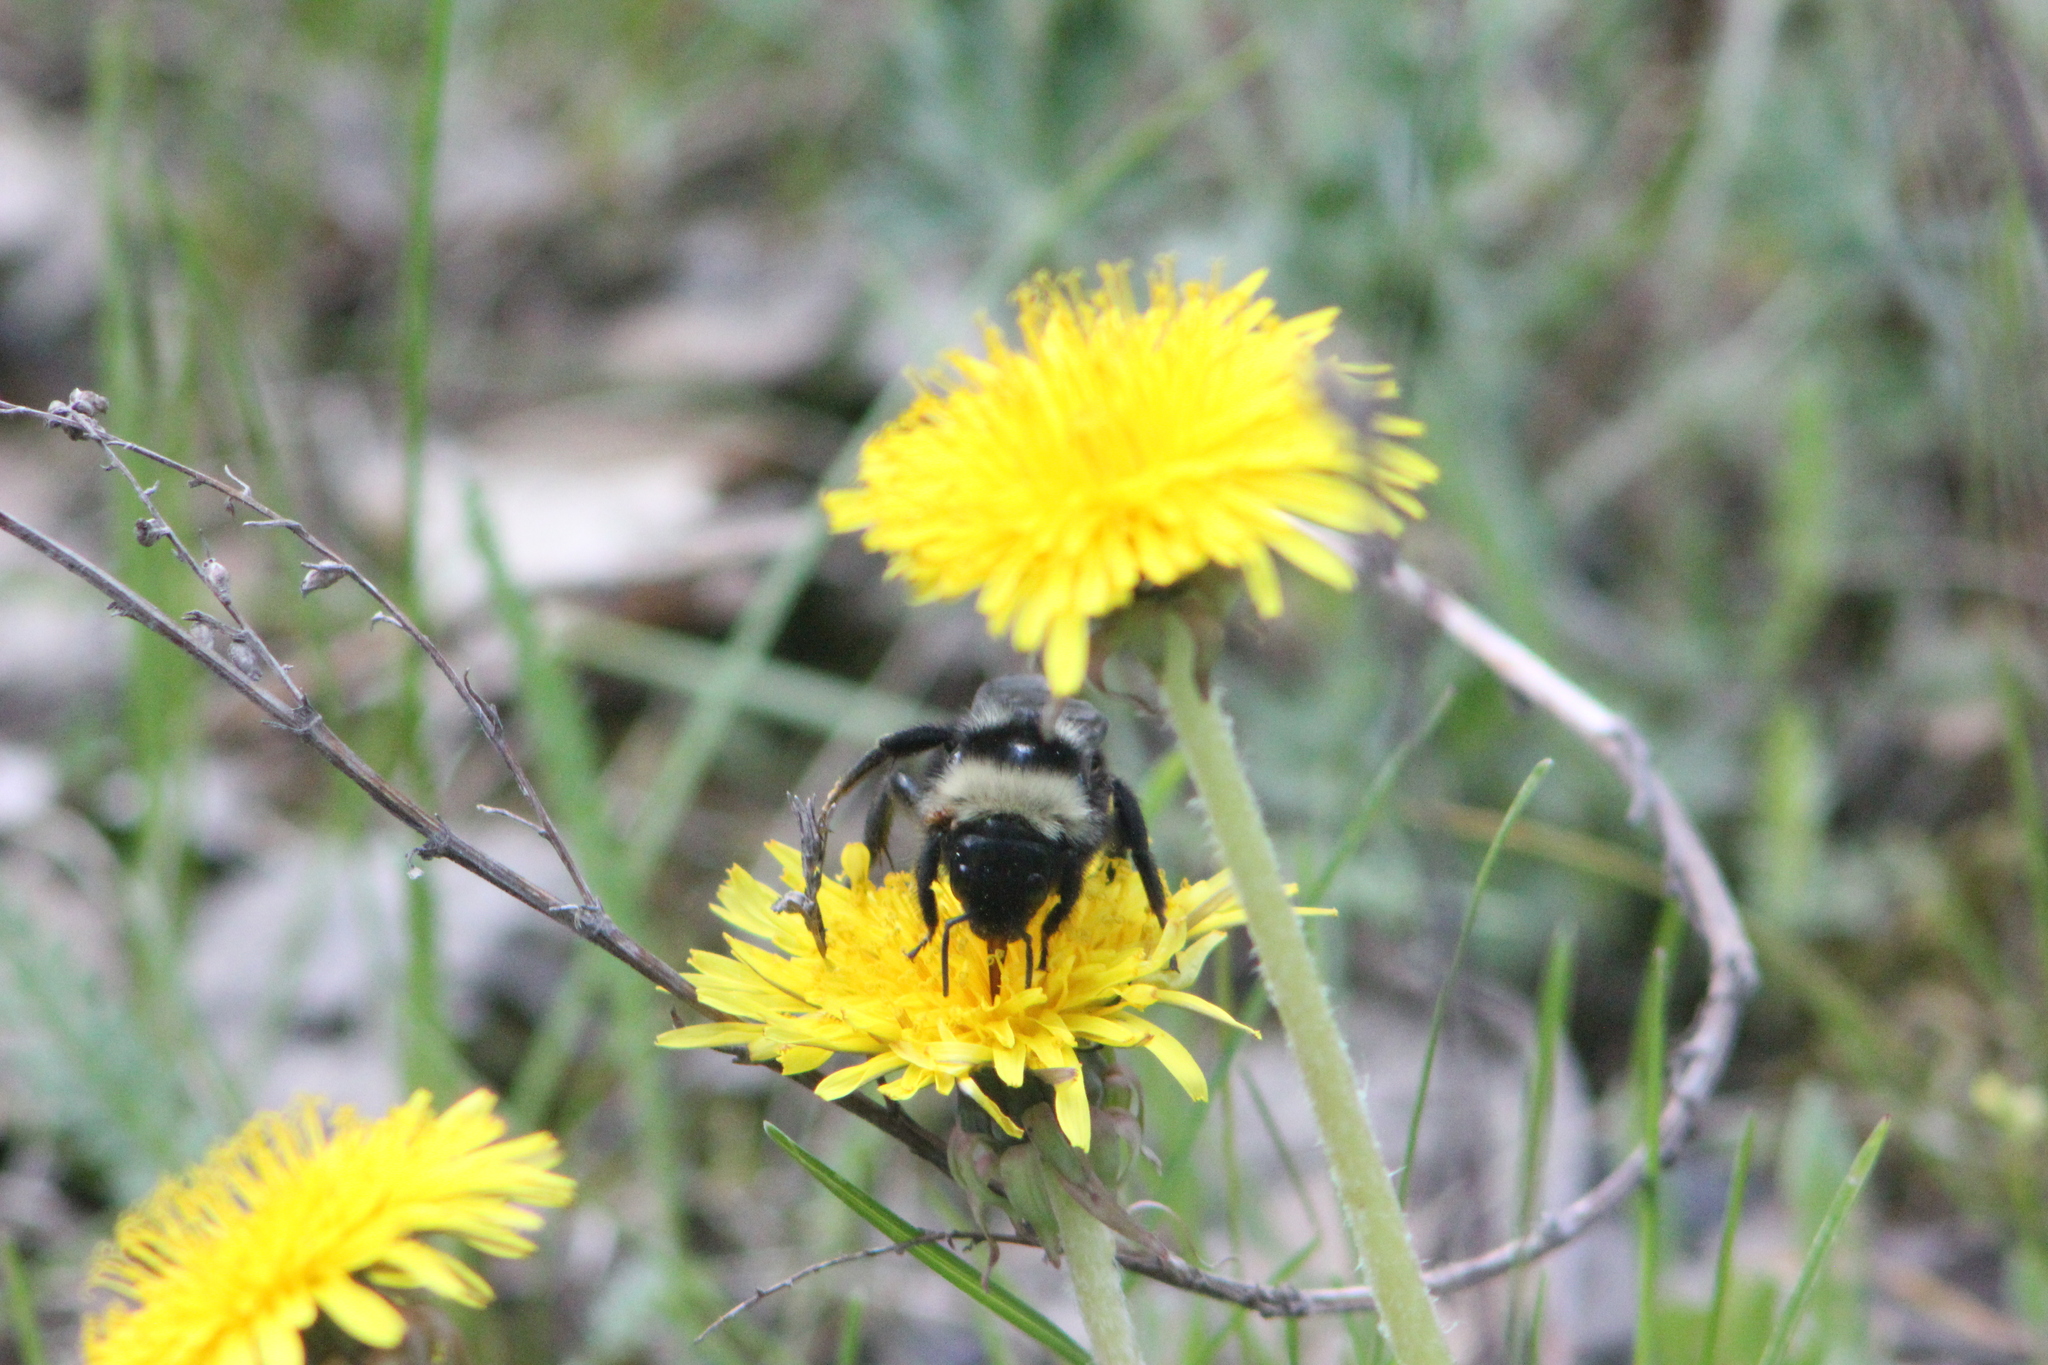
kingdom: Animalia
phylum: Arthropoda
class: Insecta
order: Hymenoptera
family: Apidae
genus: Bombus
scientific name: Bombus
